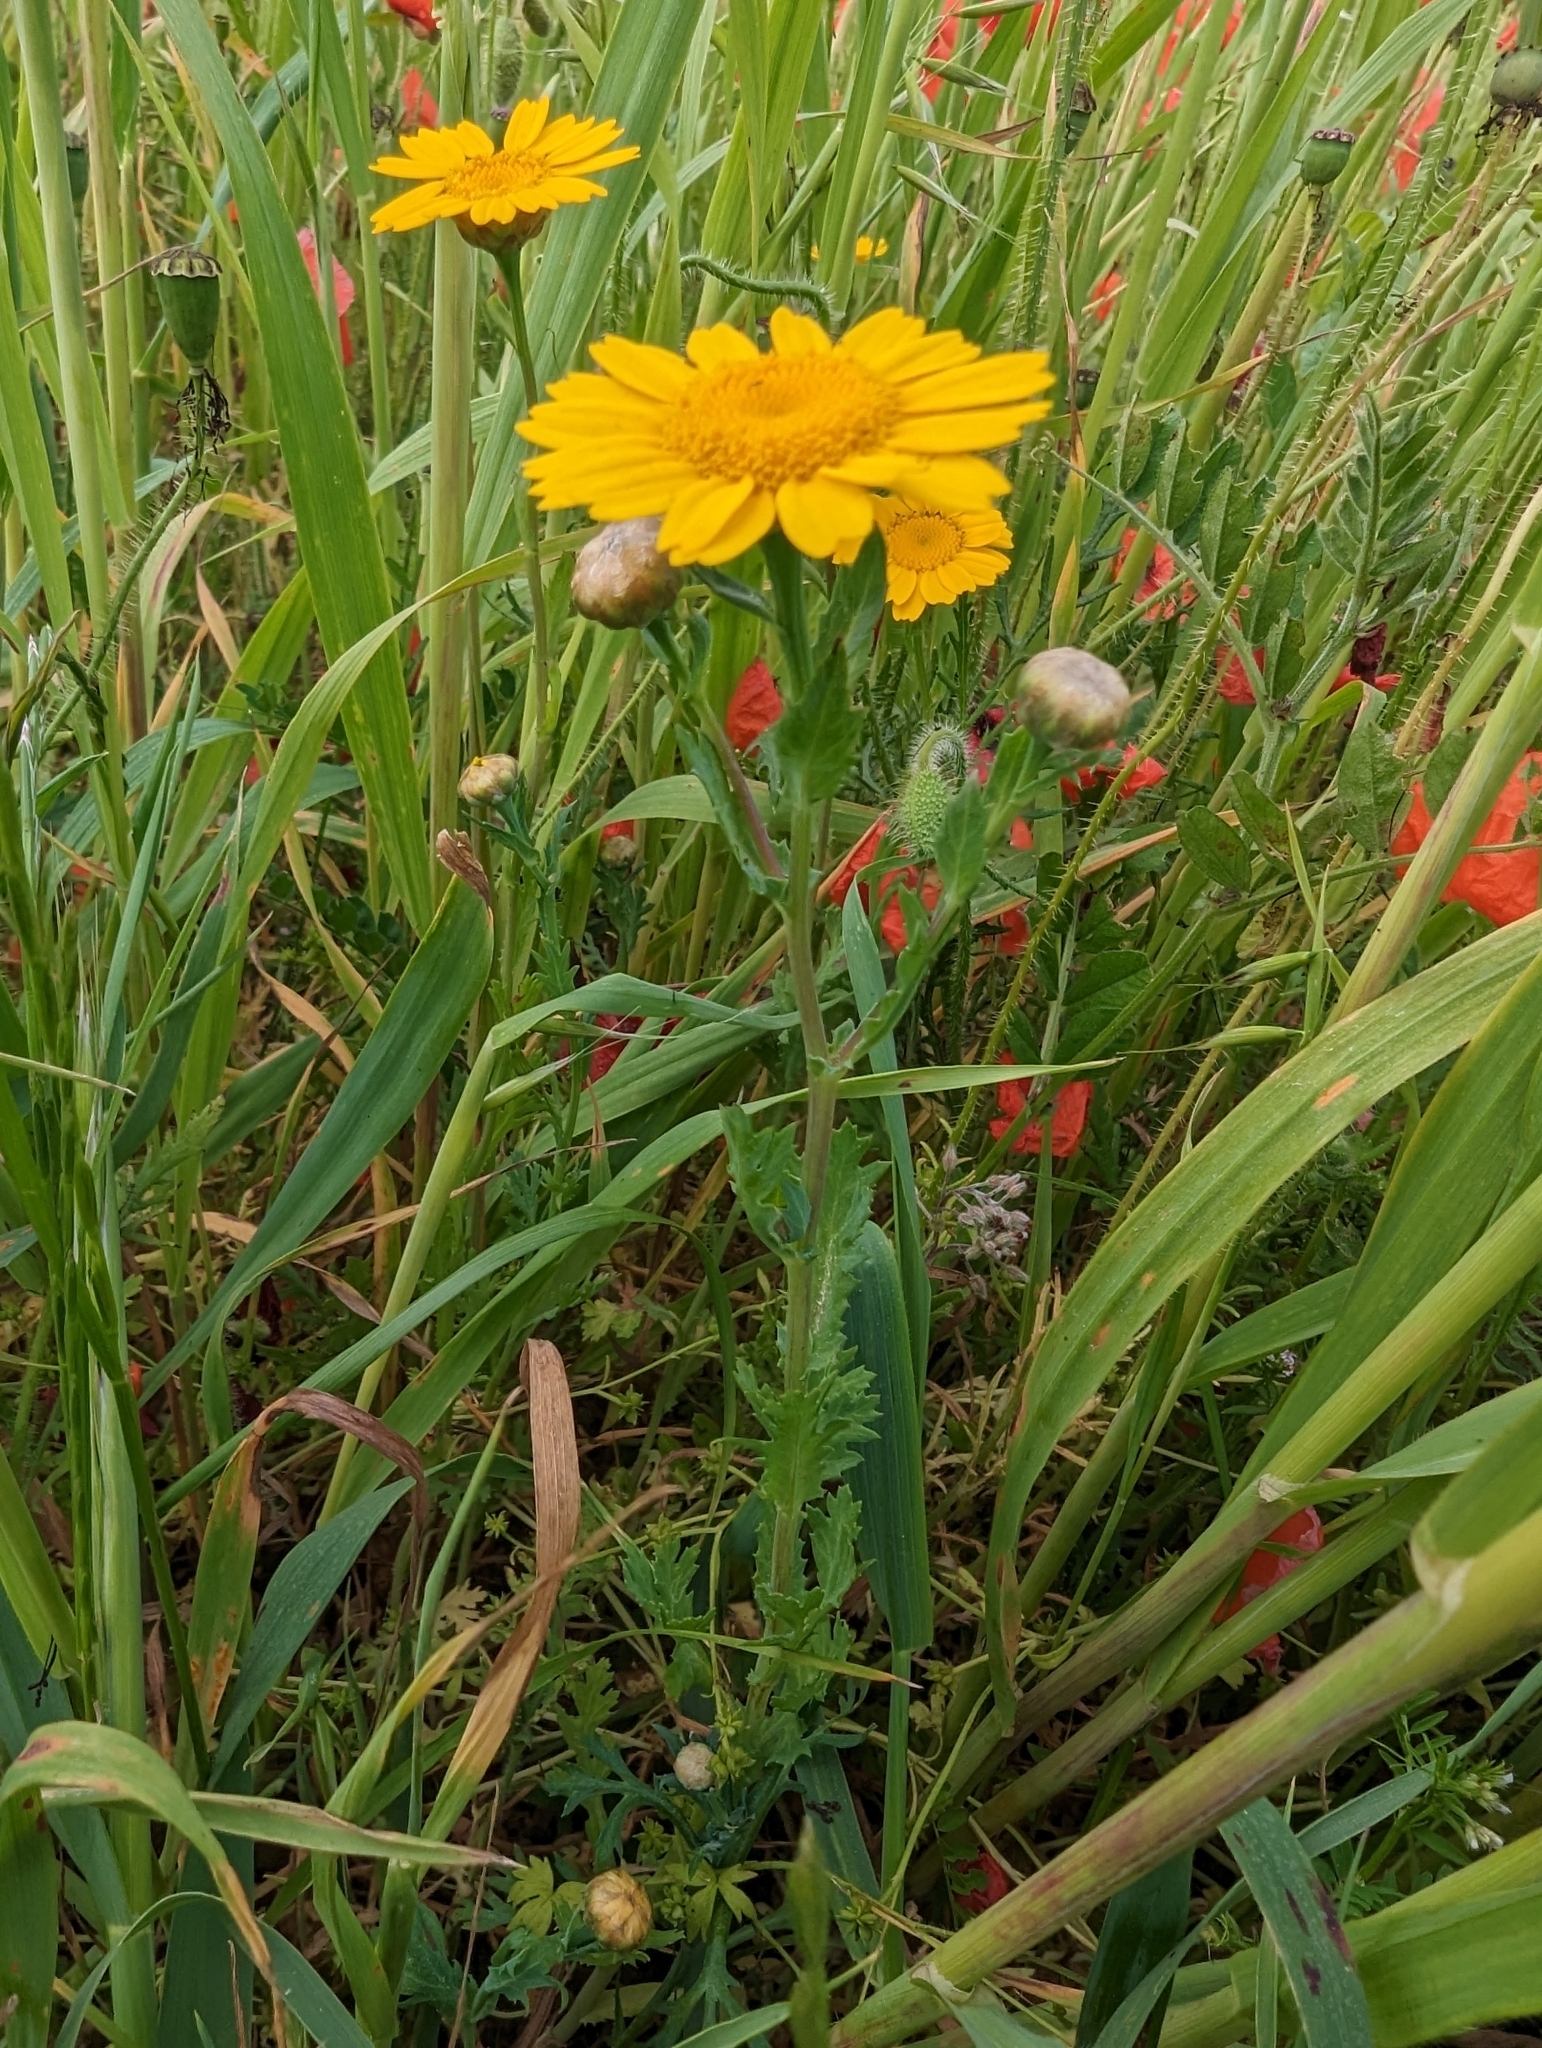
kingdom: Plantae
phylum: Tracheophyta
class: Magnoliopsida
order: Asterales
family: Asteraceae
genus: Glebionis
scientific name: Glebionis segetum
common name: Corndaisy
